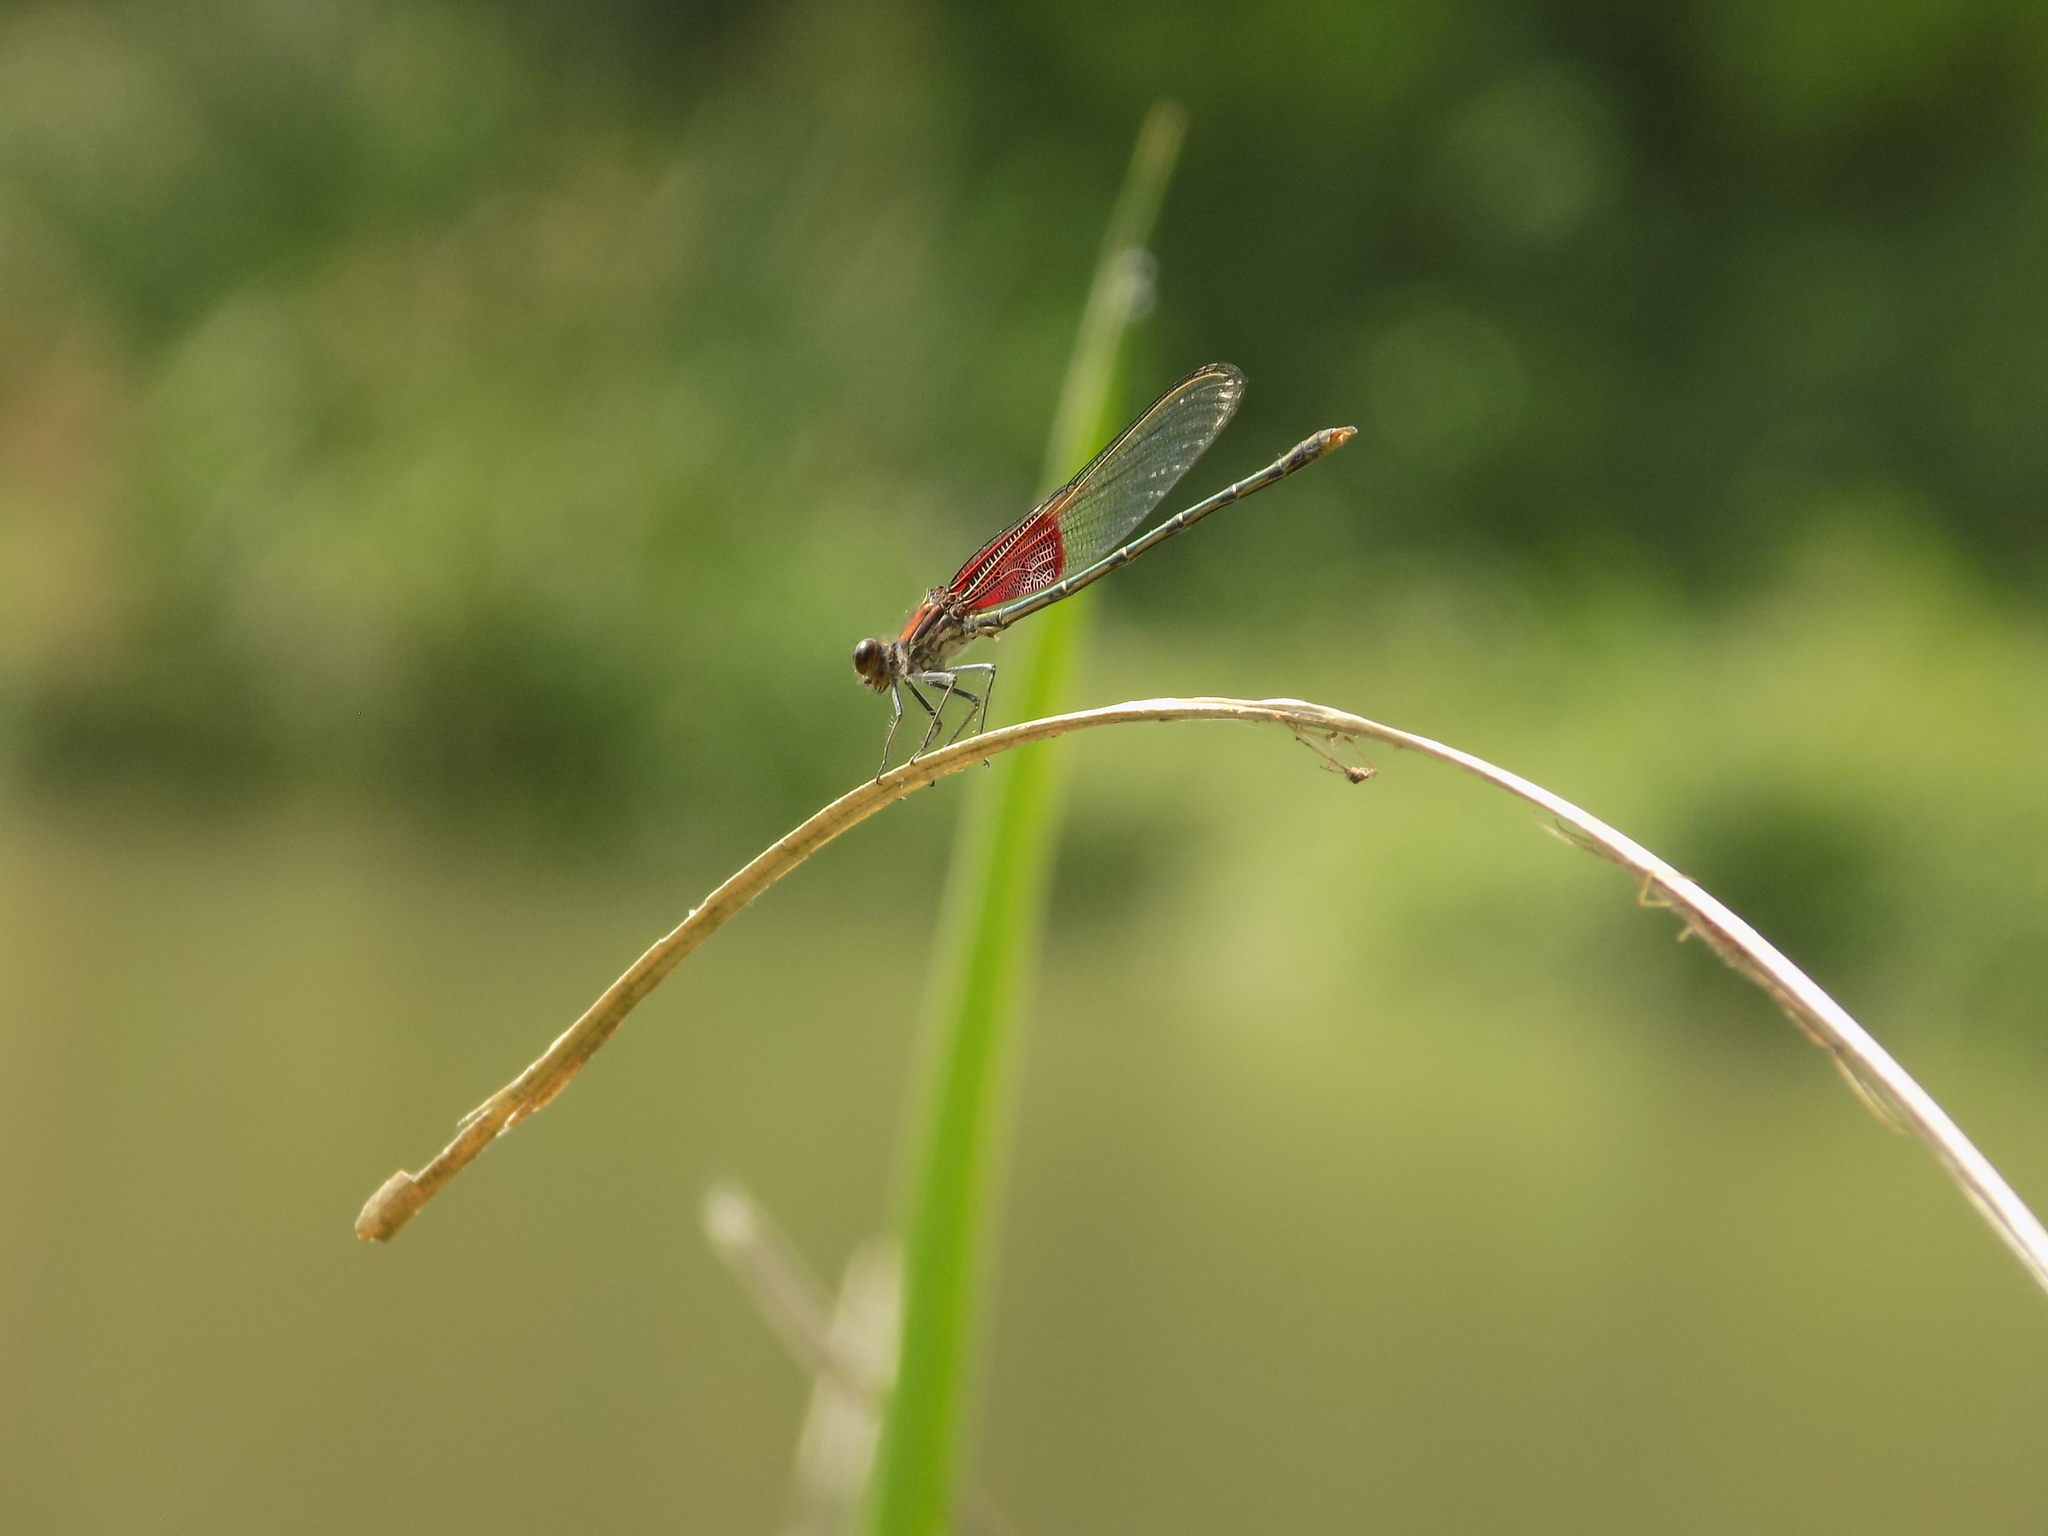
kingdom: Animalia
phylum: Arthropoda
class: Insecta
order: Odonata
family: Calopterygidae
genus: Hetaerina
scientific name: Hetaerina americana
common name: American rubyspot
